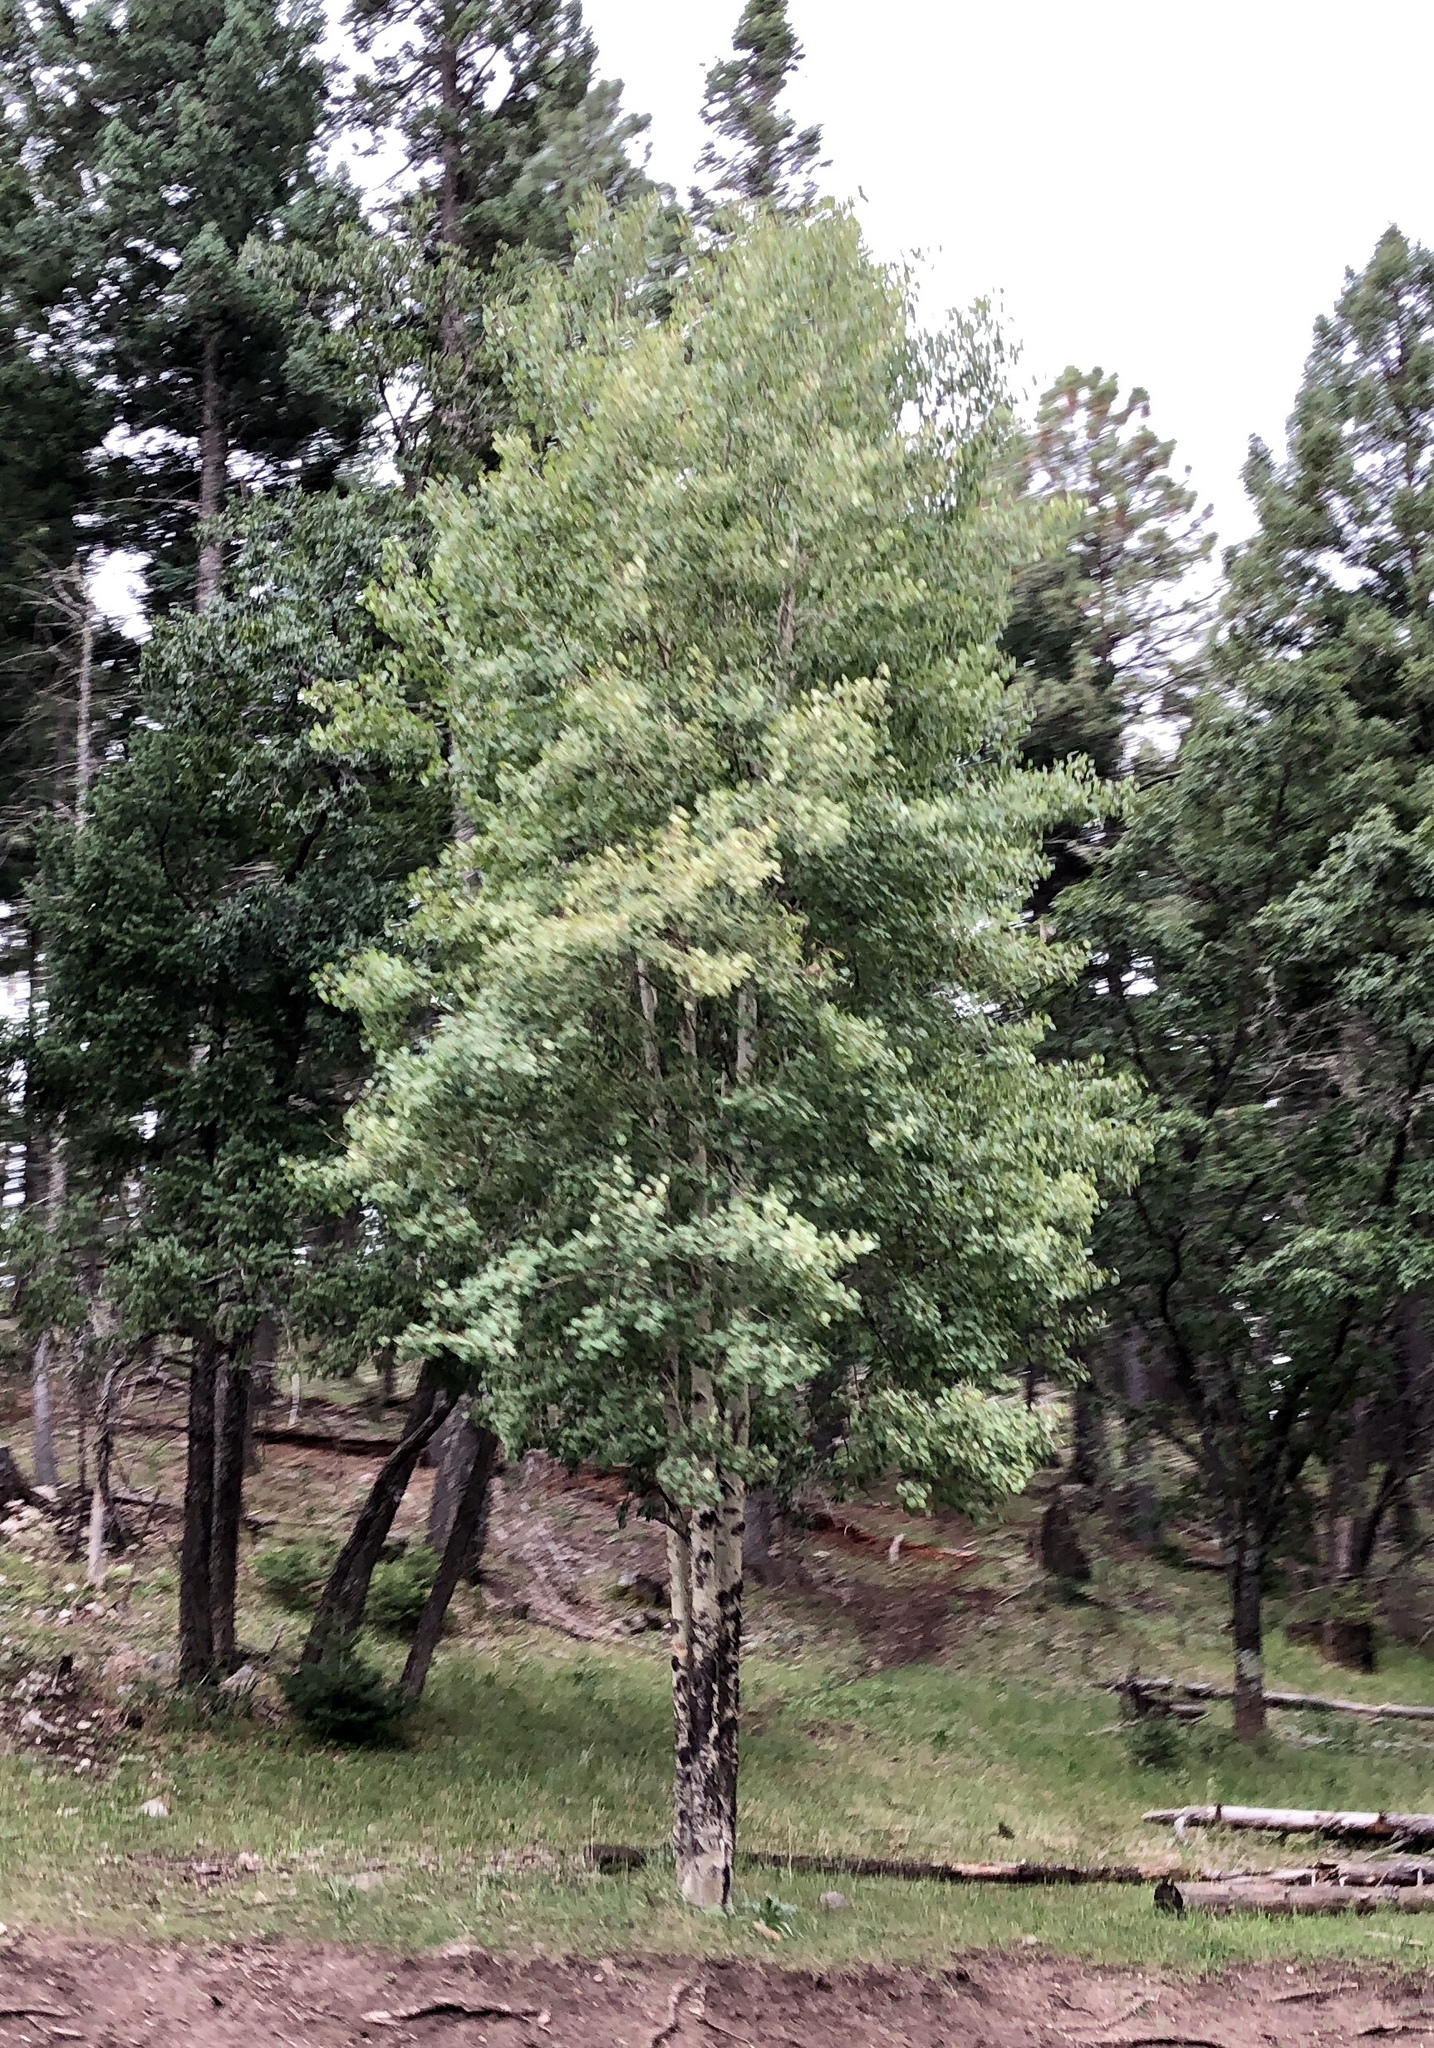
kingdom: Plantae
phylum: Tracheophyta
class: Magnoliopsida
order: Malpighiales
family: Salicaceae
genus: Populus
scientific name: Populus tremuloides
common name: Quaking aspen
